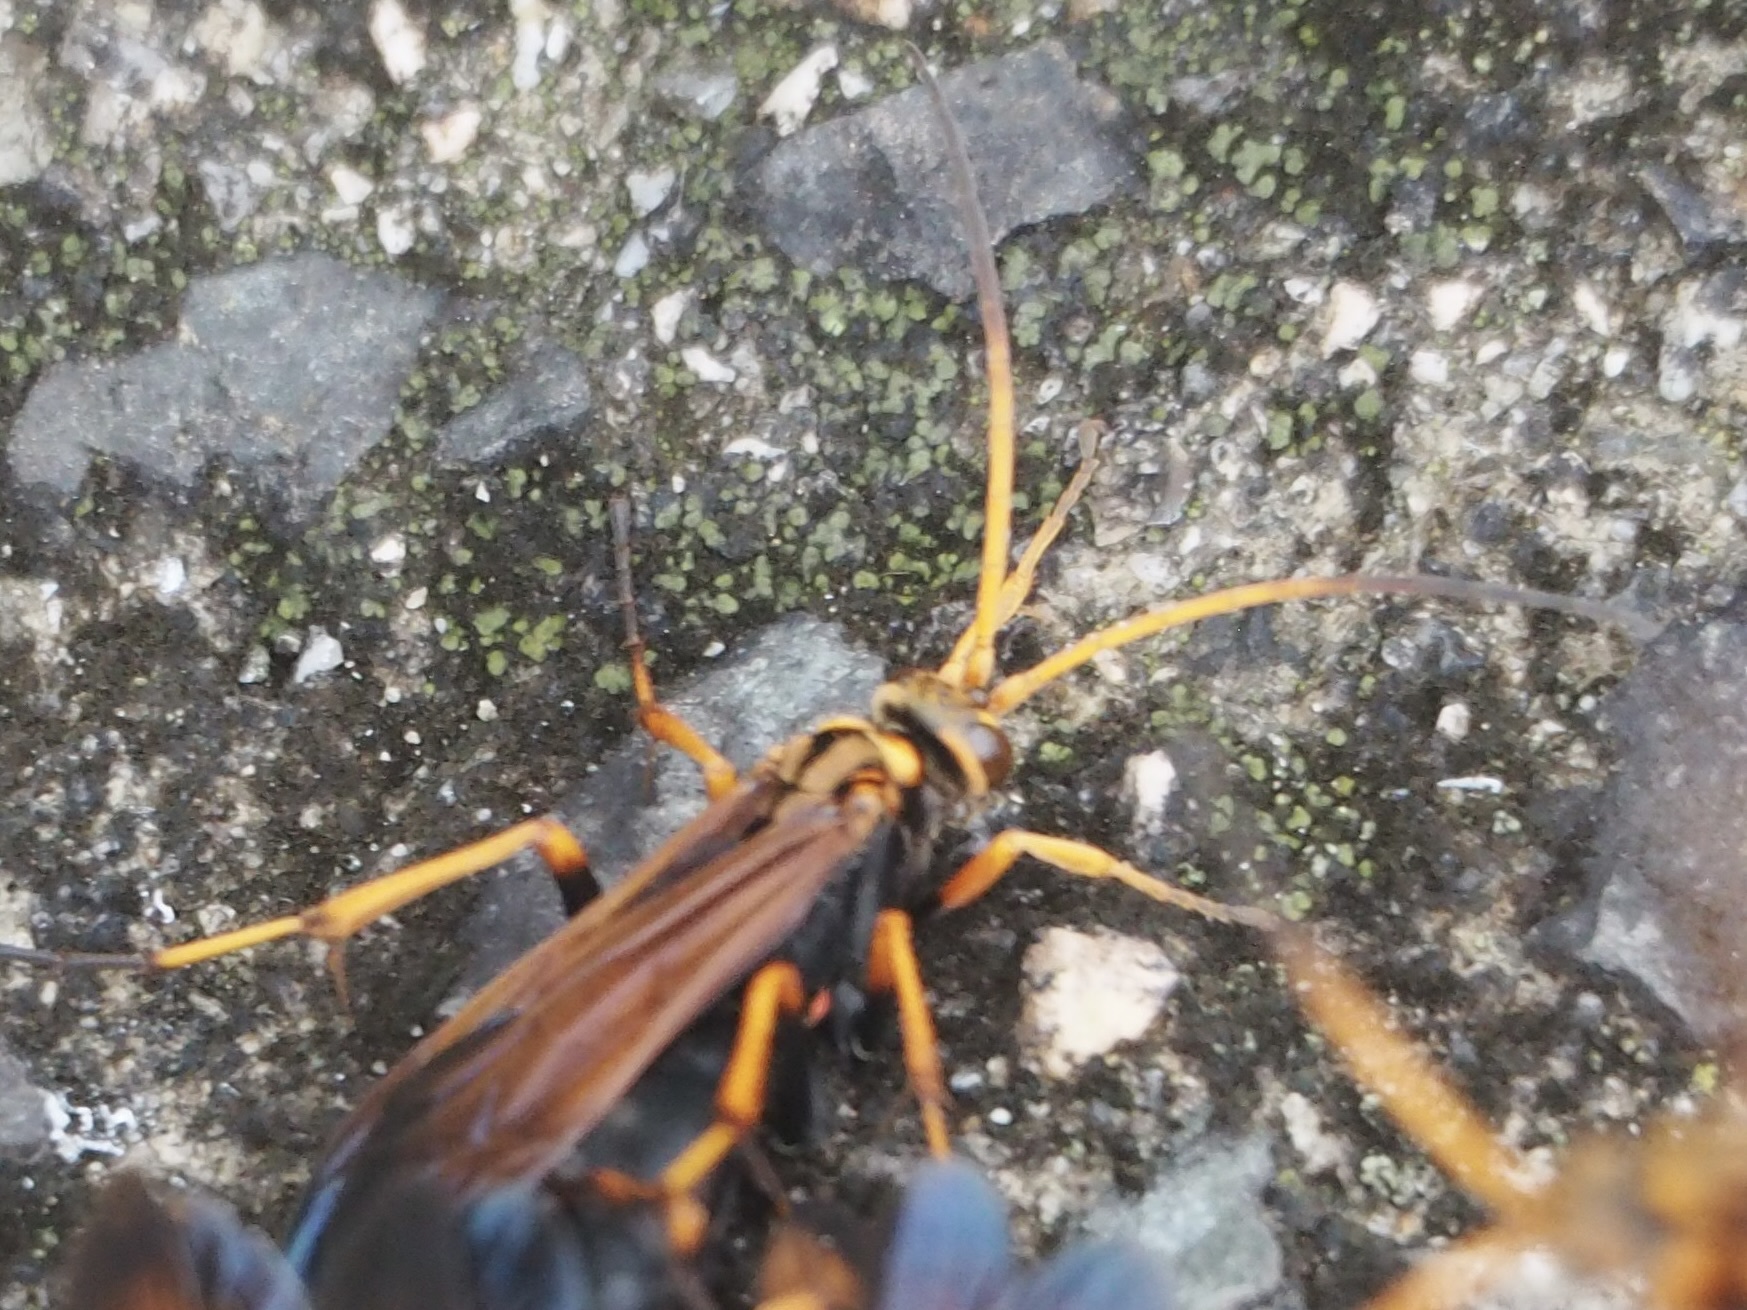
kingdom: Animalia
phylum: Arthropoda
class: Insecta
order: Hymenoptera
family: Pompilidae
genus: Cyphononyx
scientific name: Cyphononyx fulvognathus
